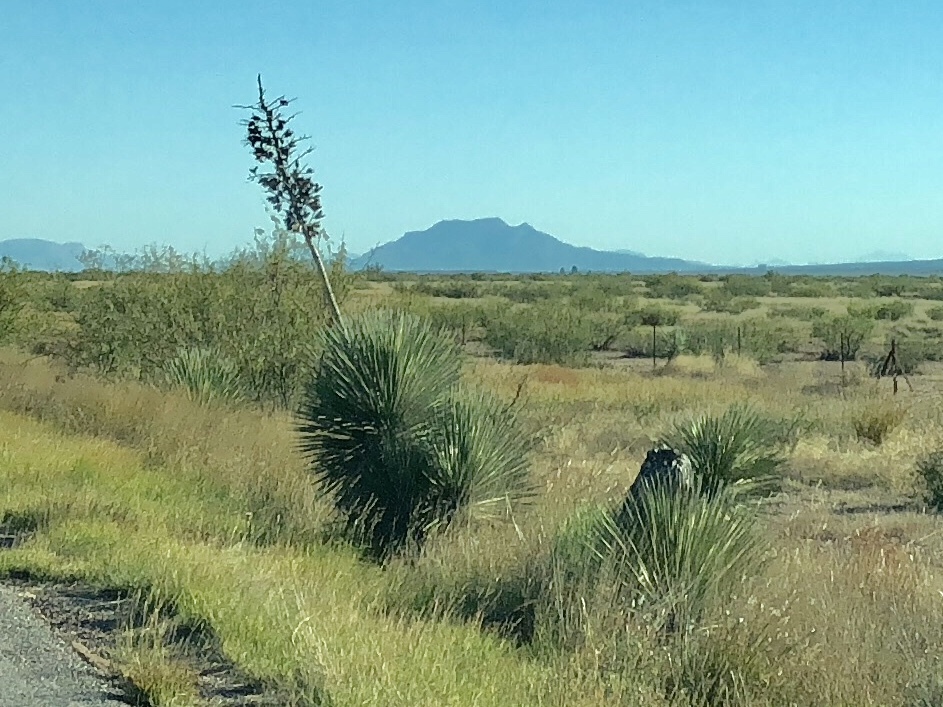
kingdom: Plantae
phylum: Tracheophyta
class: Liliopsida
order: Asparagales
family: Asparagaceae
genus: Yucca
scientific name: Yucca elata
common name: Palmella
